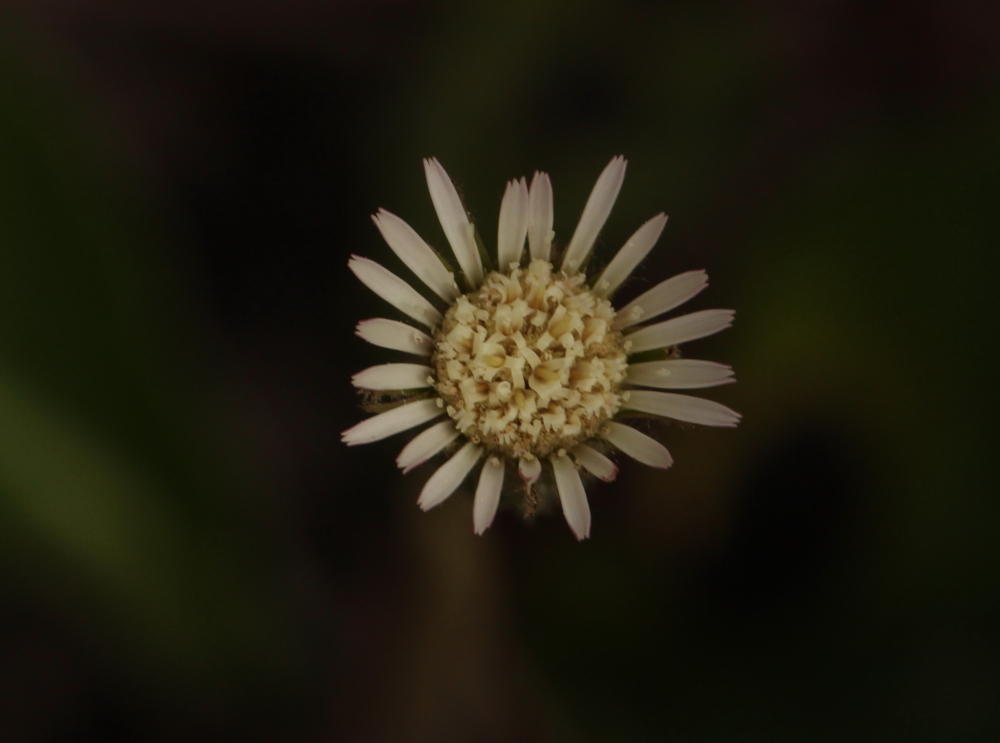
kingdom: Plantae
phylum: Tracheophyta
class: Magnoliopsida
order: Asterales
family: Asteraceae
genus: Piloselloides
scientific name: Piloselloides hirsuta
